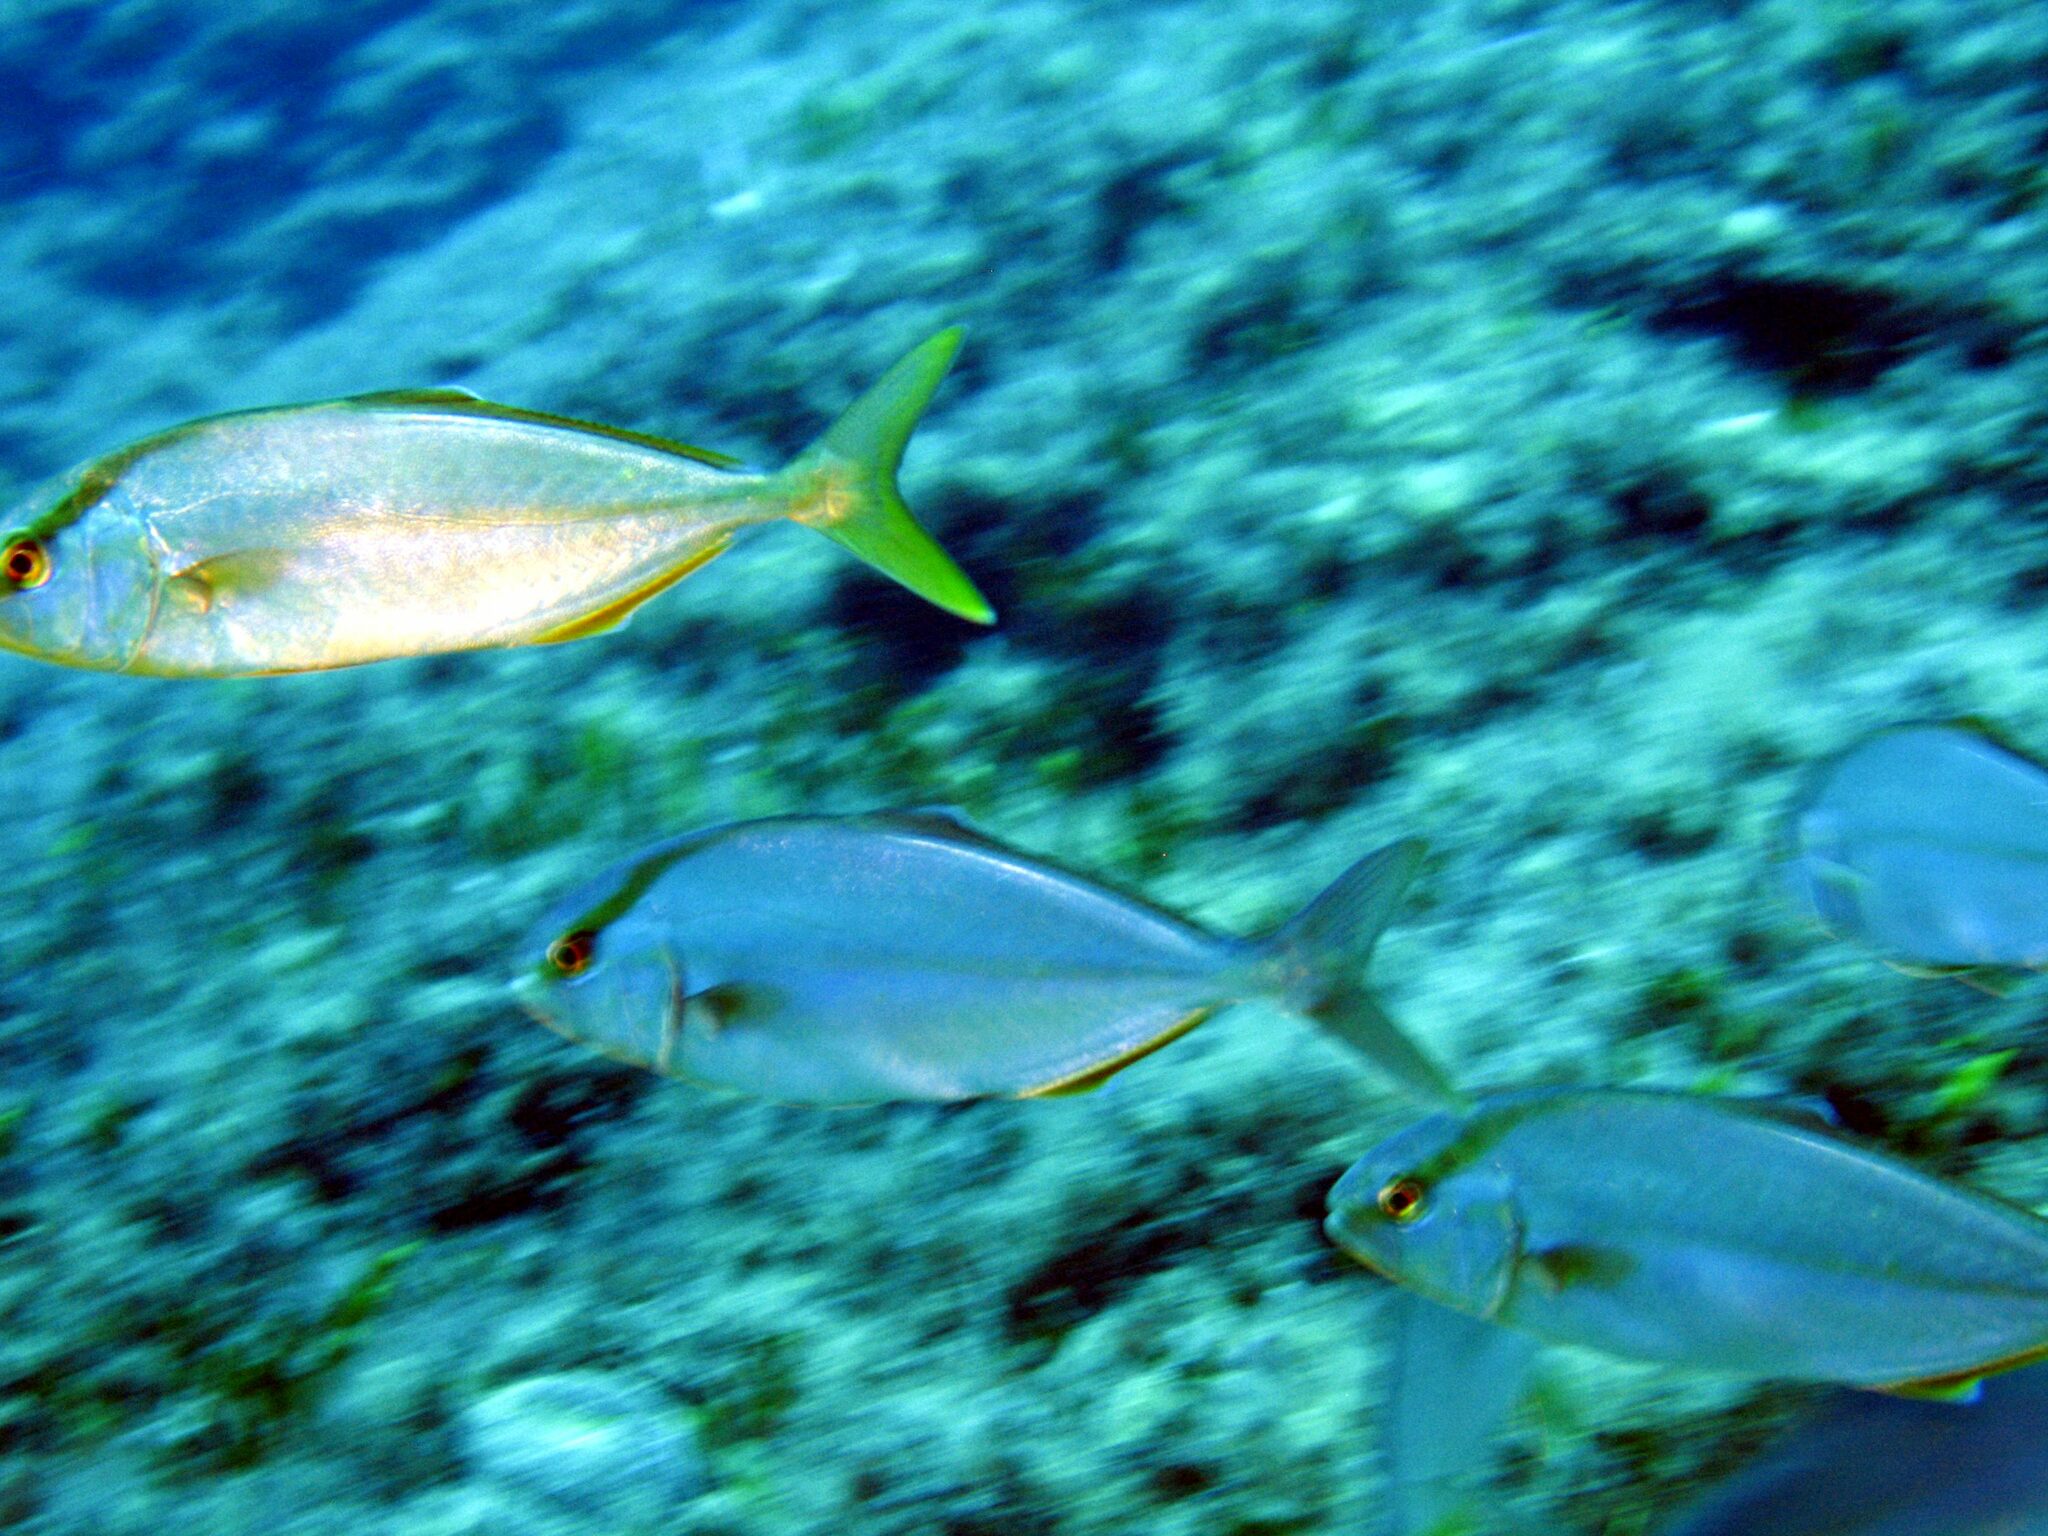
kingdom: Animalia
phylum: Chordata
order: Perciformes
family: Carangidae
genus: Seriola
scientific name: Seriola dumerili
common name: Greater amberjack
